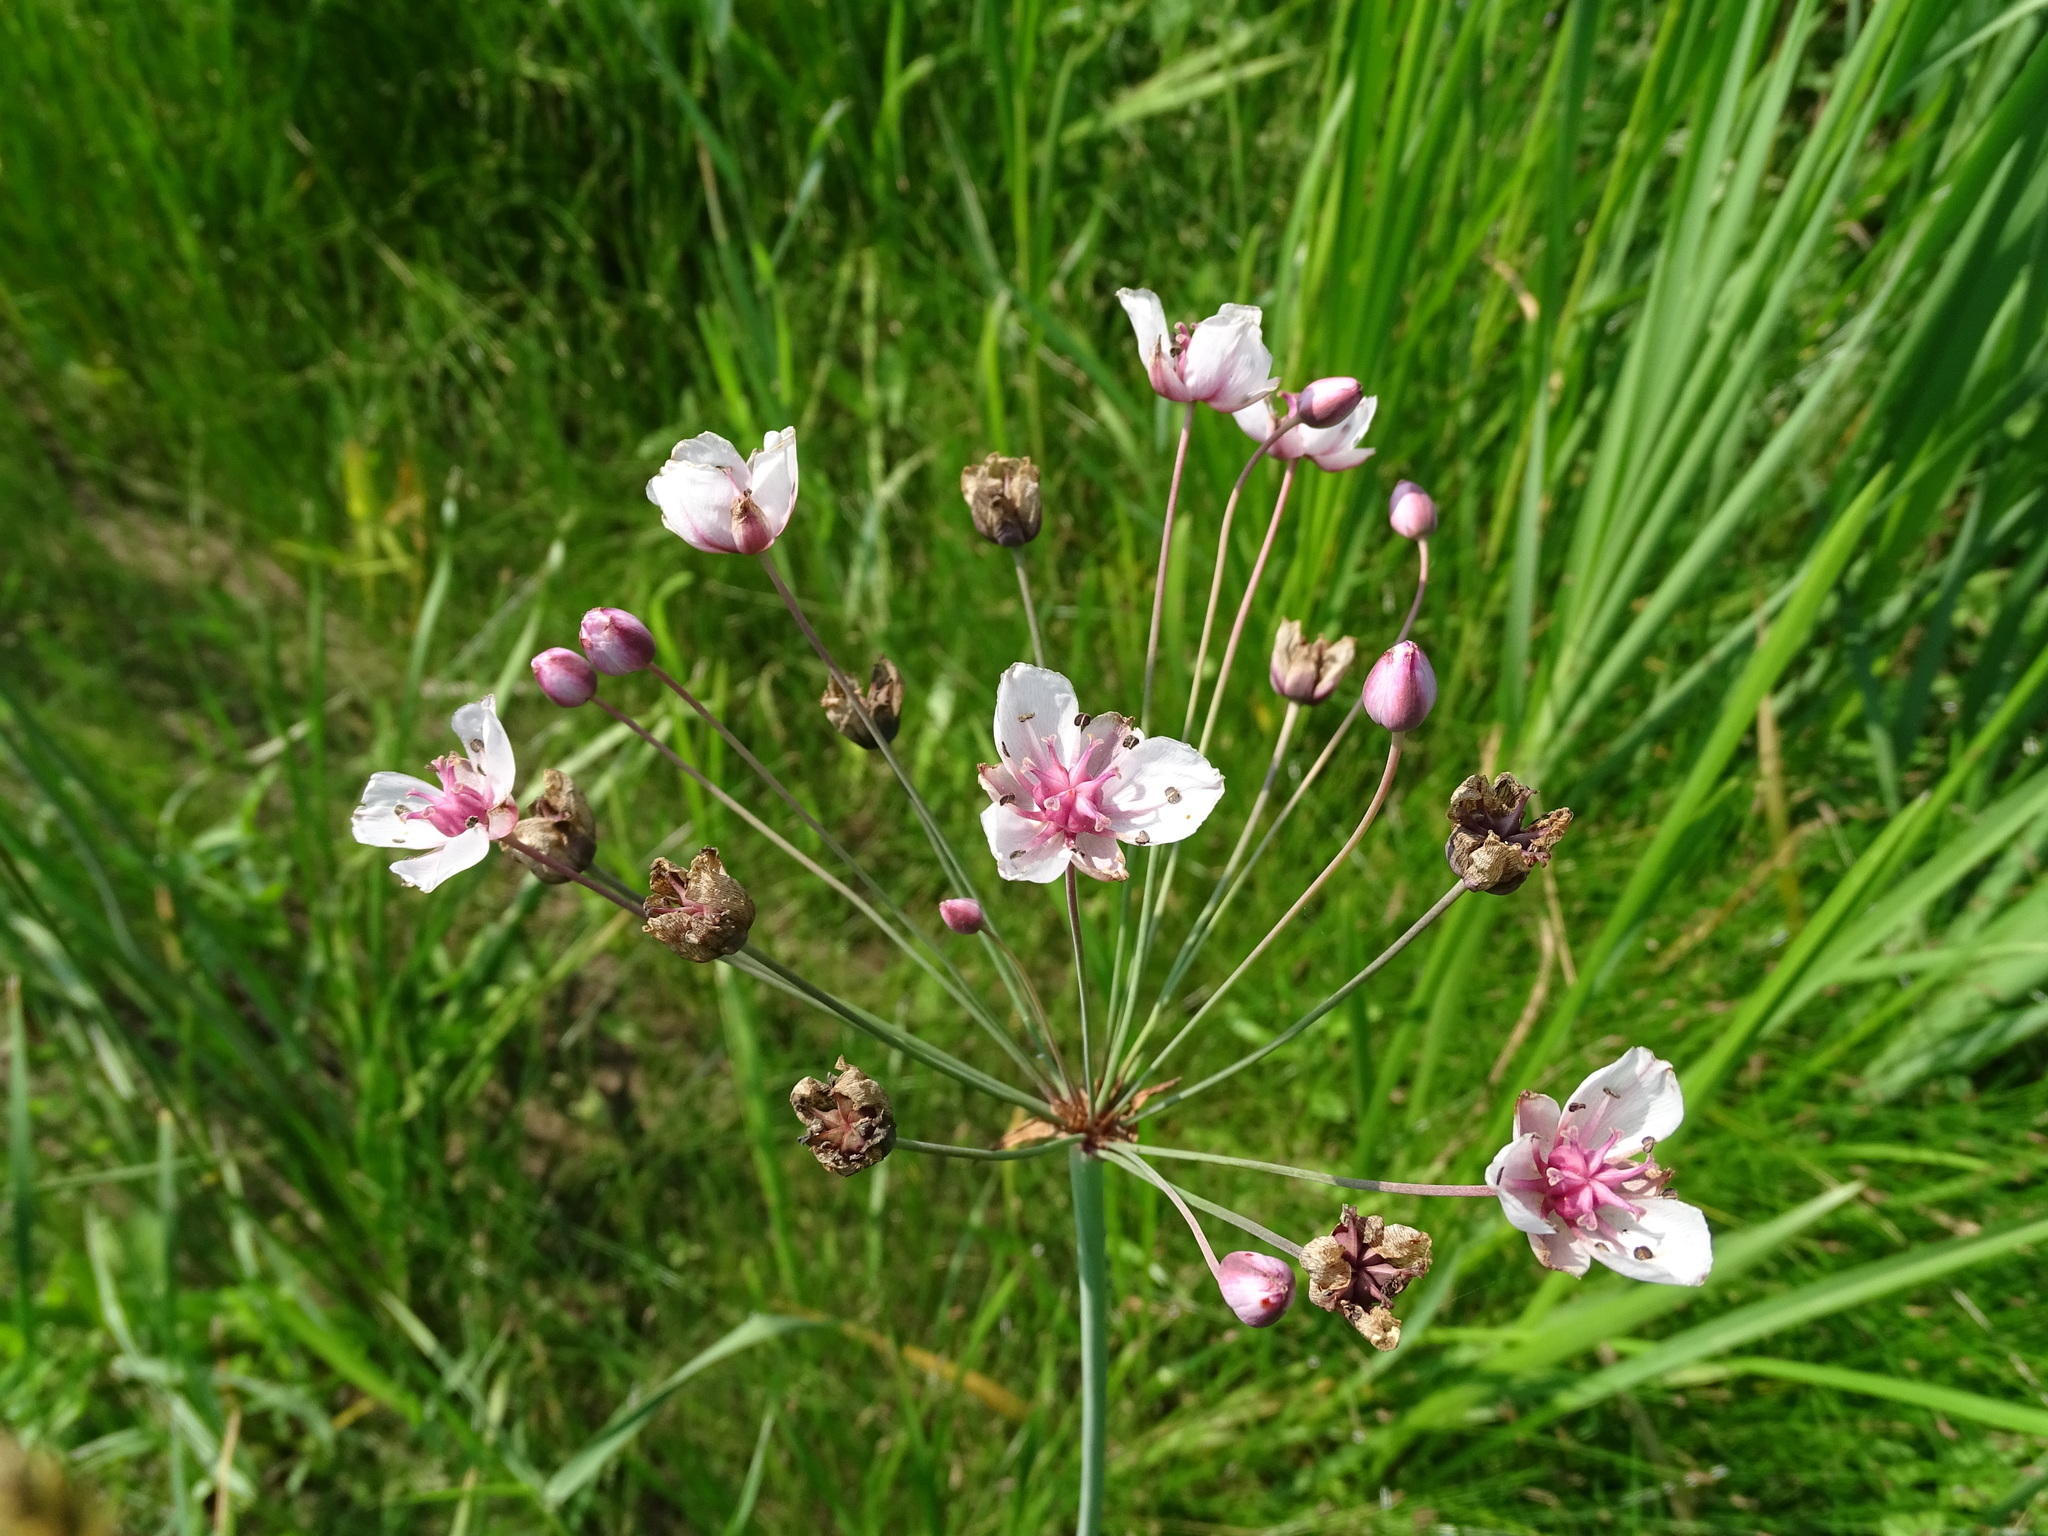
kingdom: Plantae
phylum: Tracheophyta
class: Liliopsida
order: Alismatales
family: Butomaceae
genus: Butomus
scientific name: Butomus umbellatus
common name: Flowering-rush
